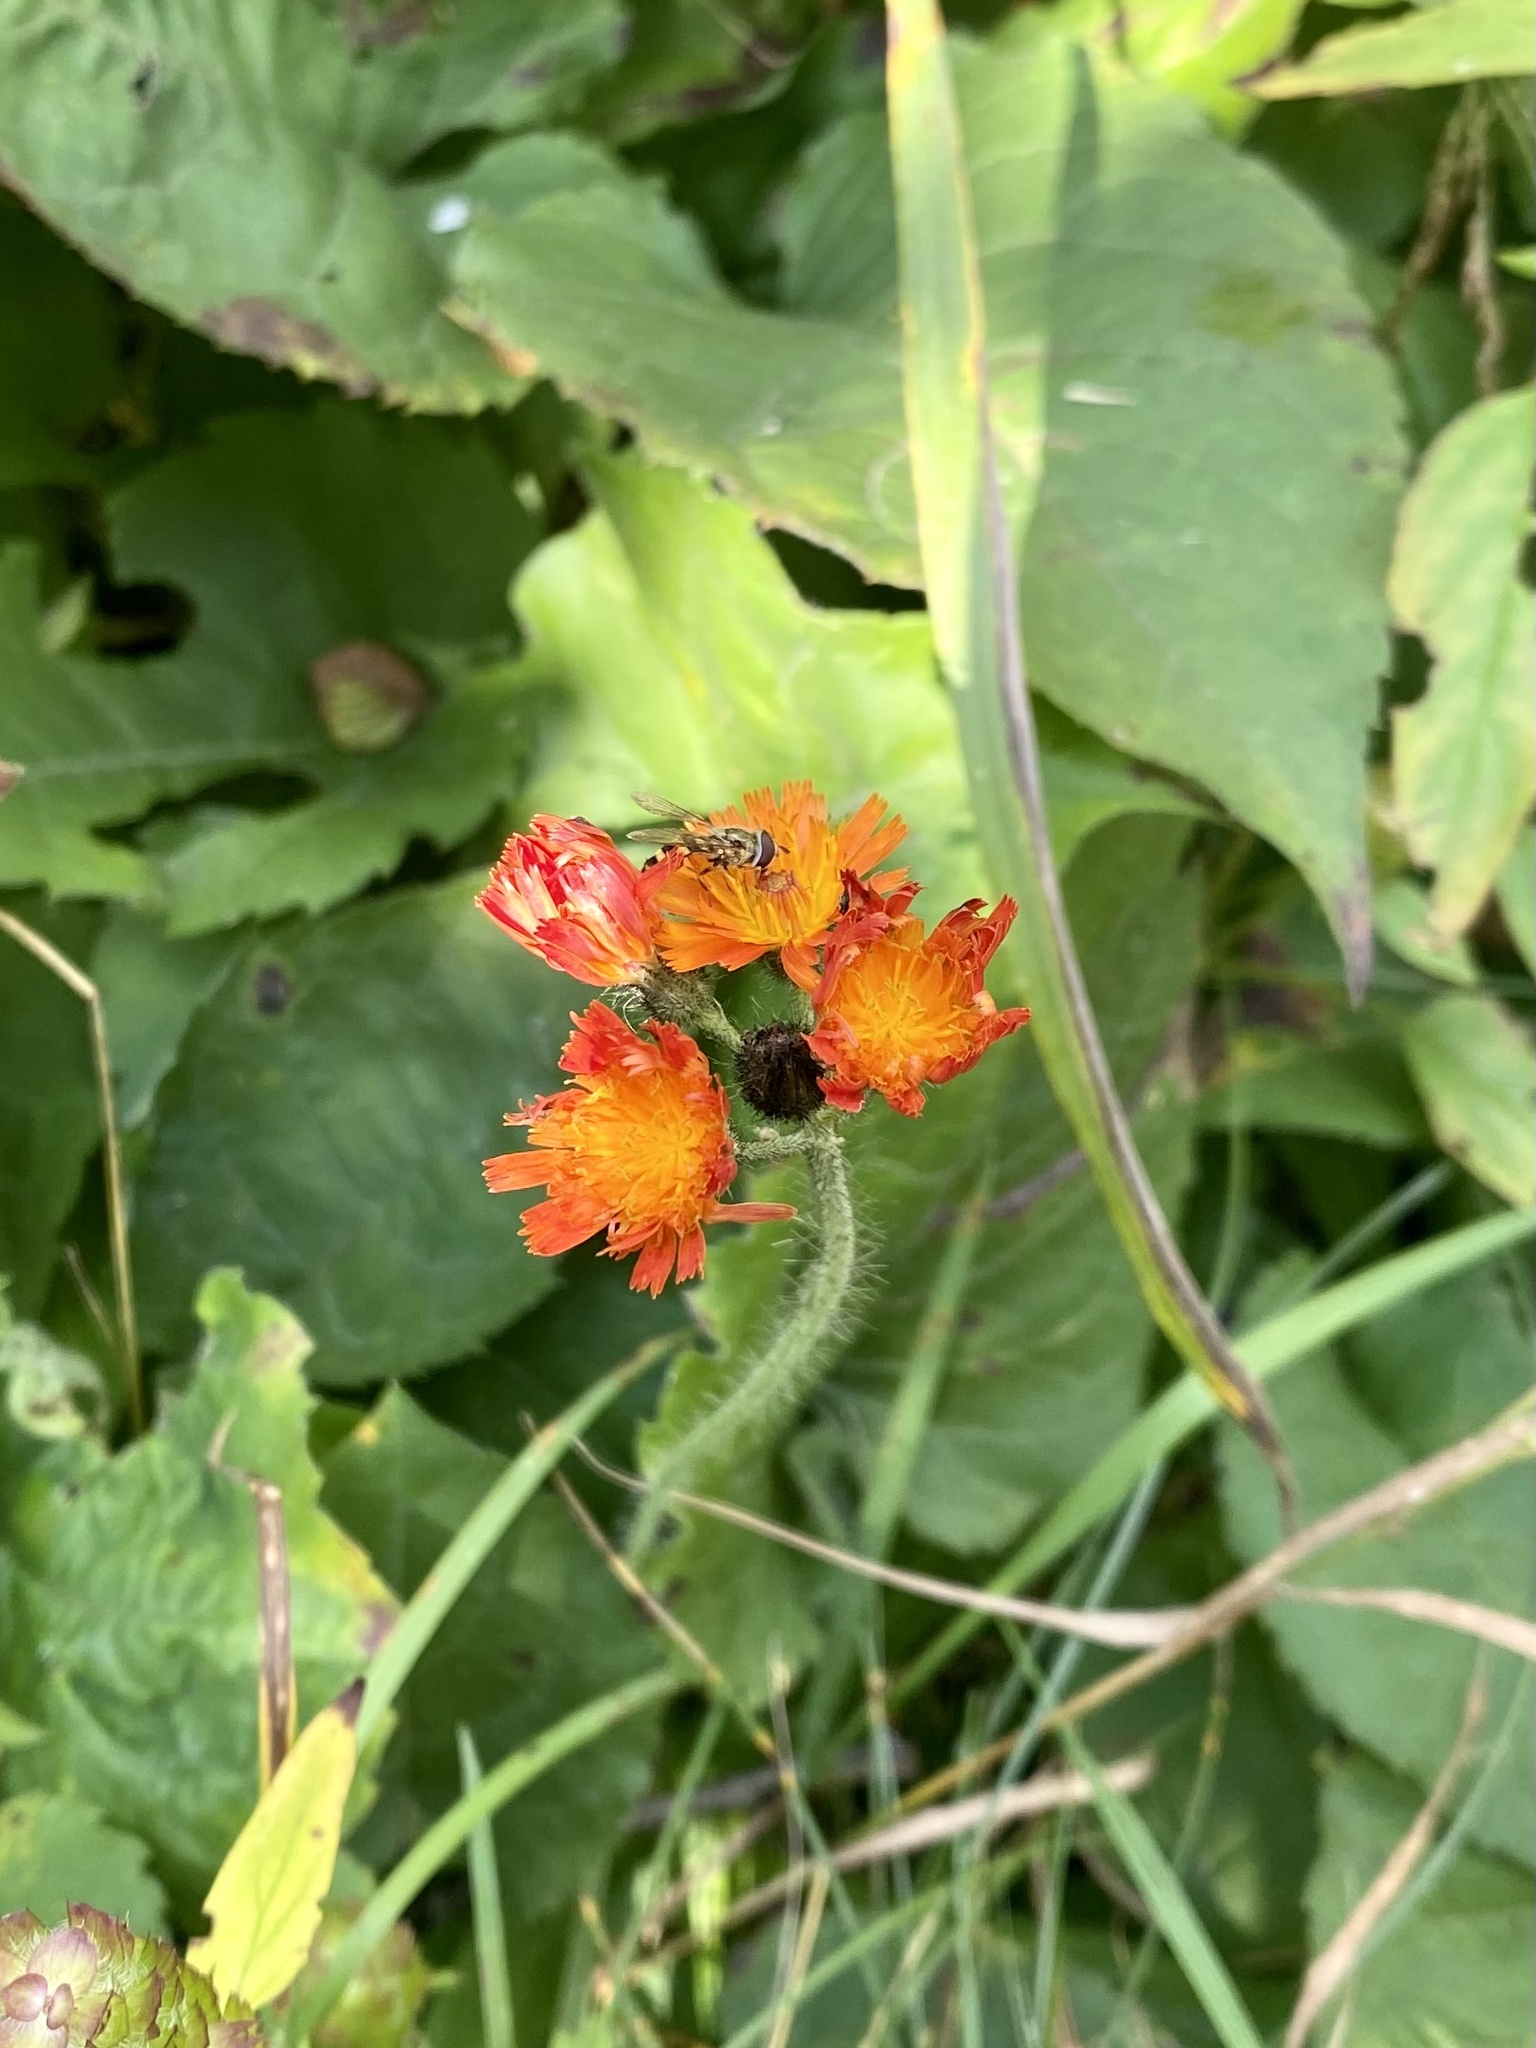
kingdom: Plantae
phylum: Tracheophyta
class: Magnoliopsida
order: Asterales
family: Asteraceae
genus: Pilosella
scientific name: Pilosella aurantiaca
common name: Fox-and-cubs
